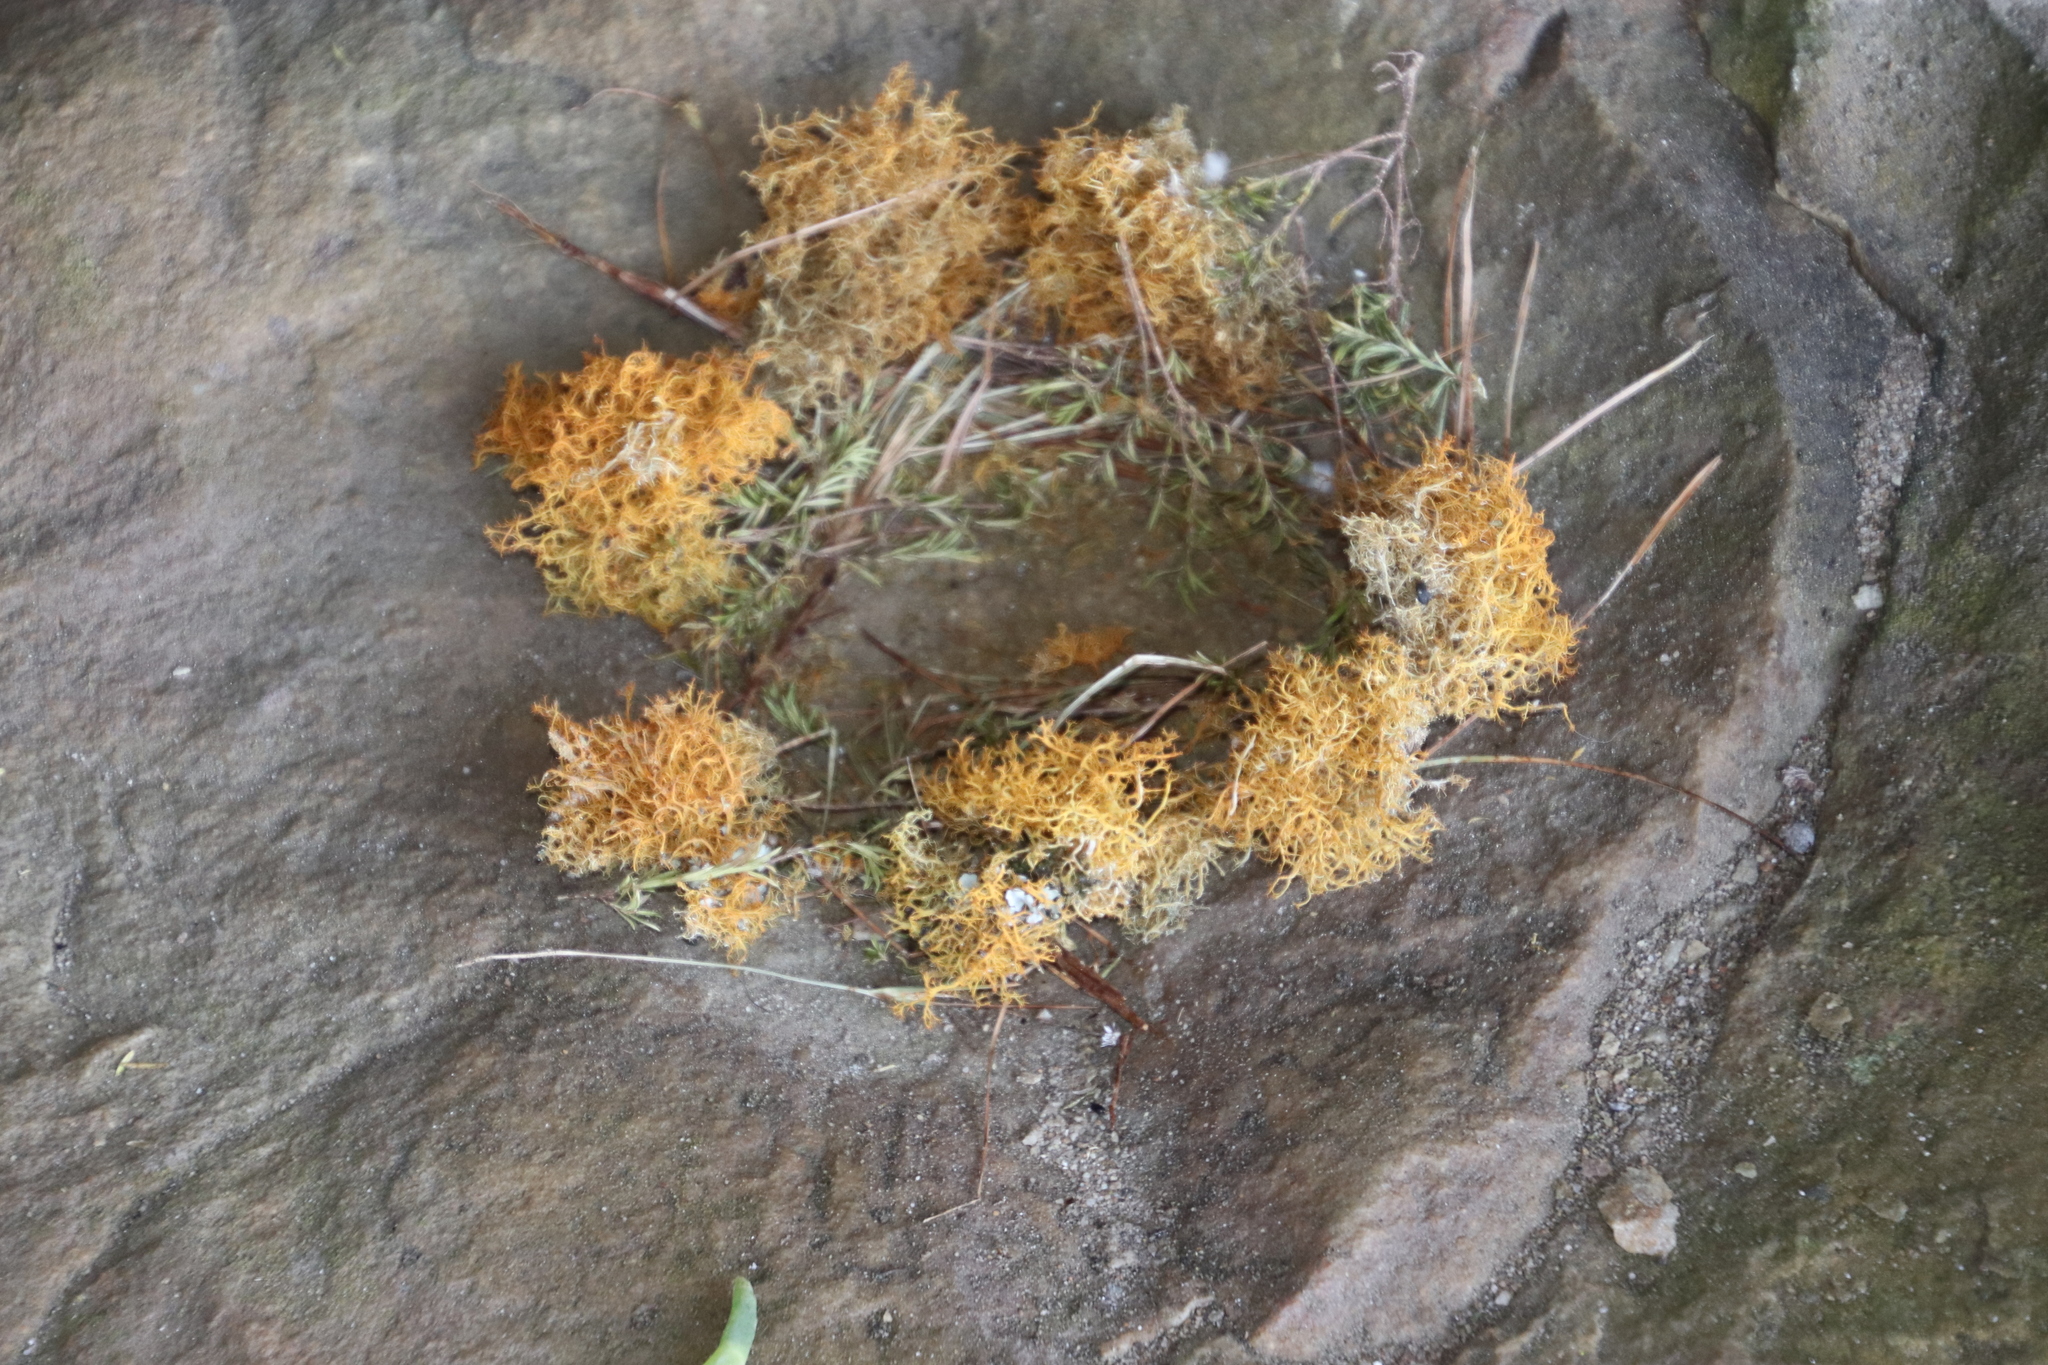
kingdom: Fungi
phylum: Ascomycota
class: Lecanoromycetes
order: Teloschistales
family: Teloschistaceae
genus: Teloschistes
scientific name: Teloschistes capensis
